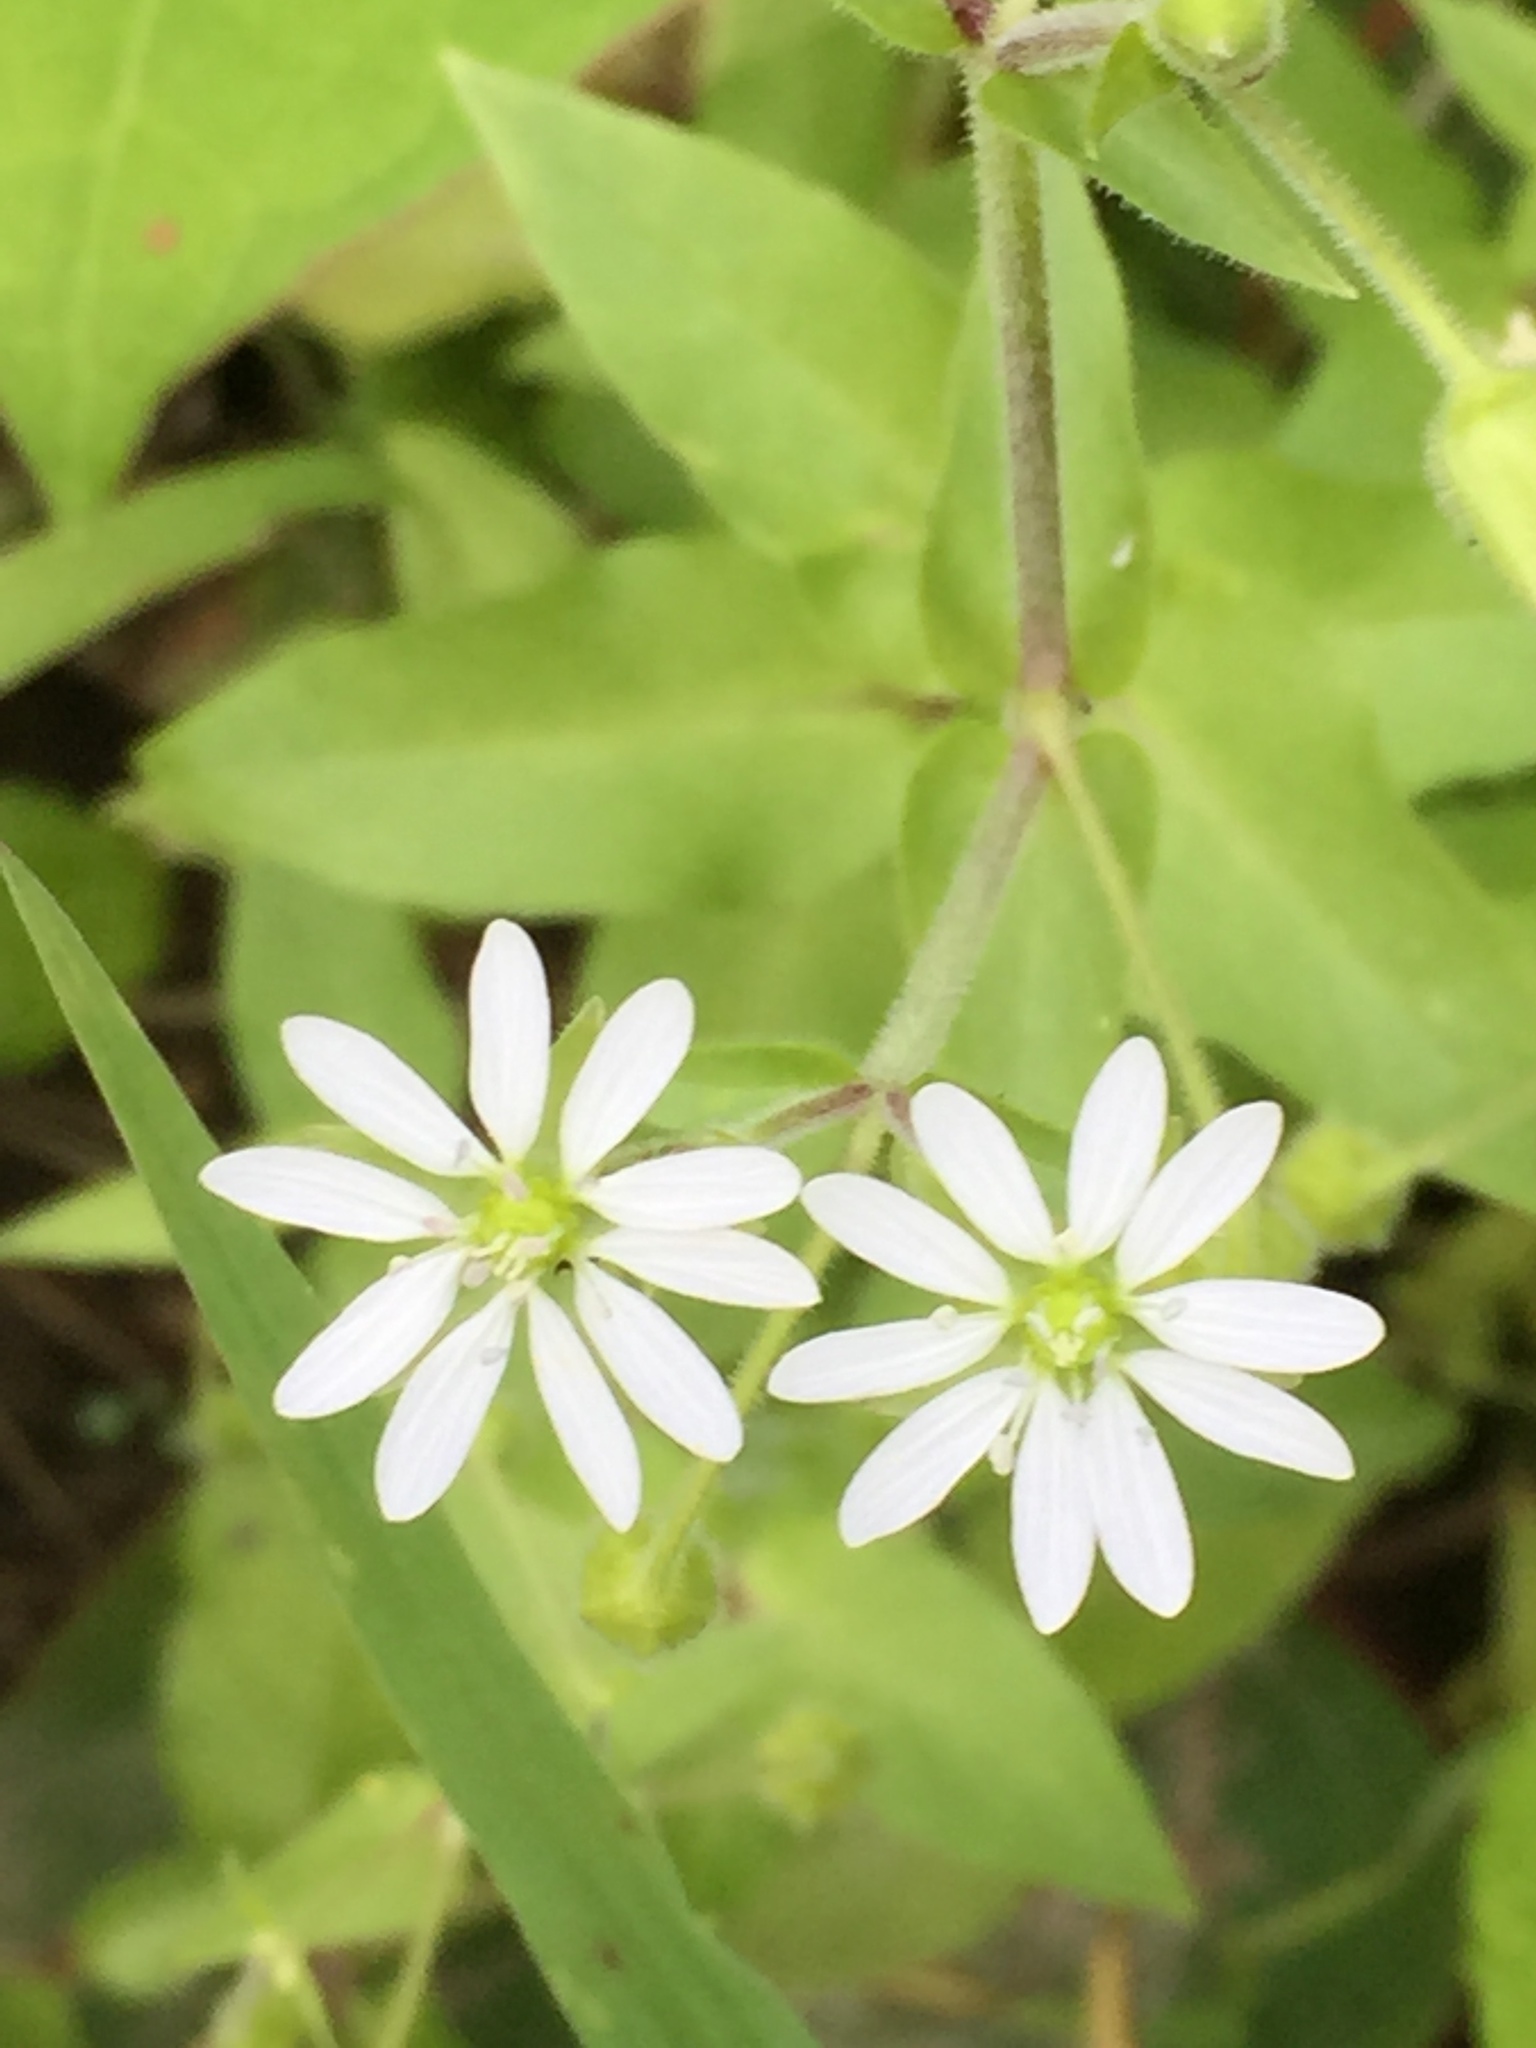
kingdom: Plantae
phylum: Tracheophyta
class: Magnoliopsida
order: Caryophyllales
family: Caryophyllaceae
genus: Stellaria
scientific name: Stellaria aquatica
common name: Water chickweed
